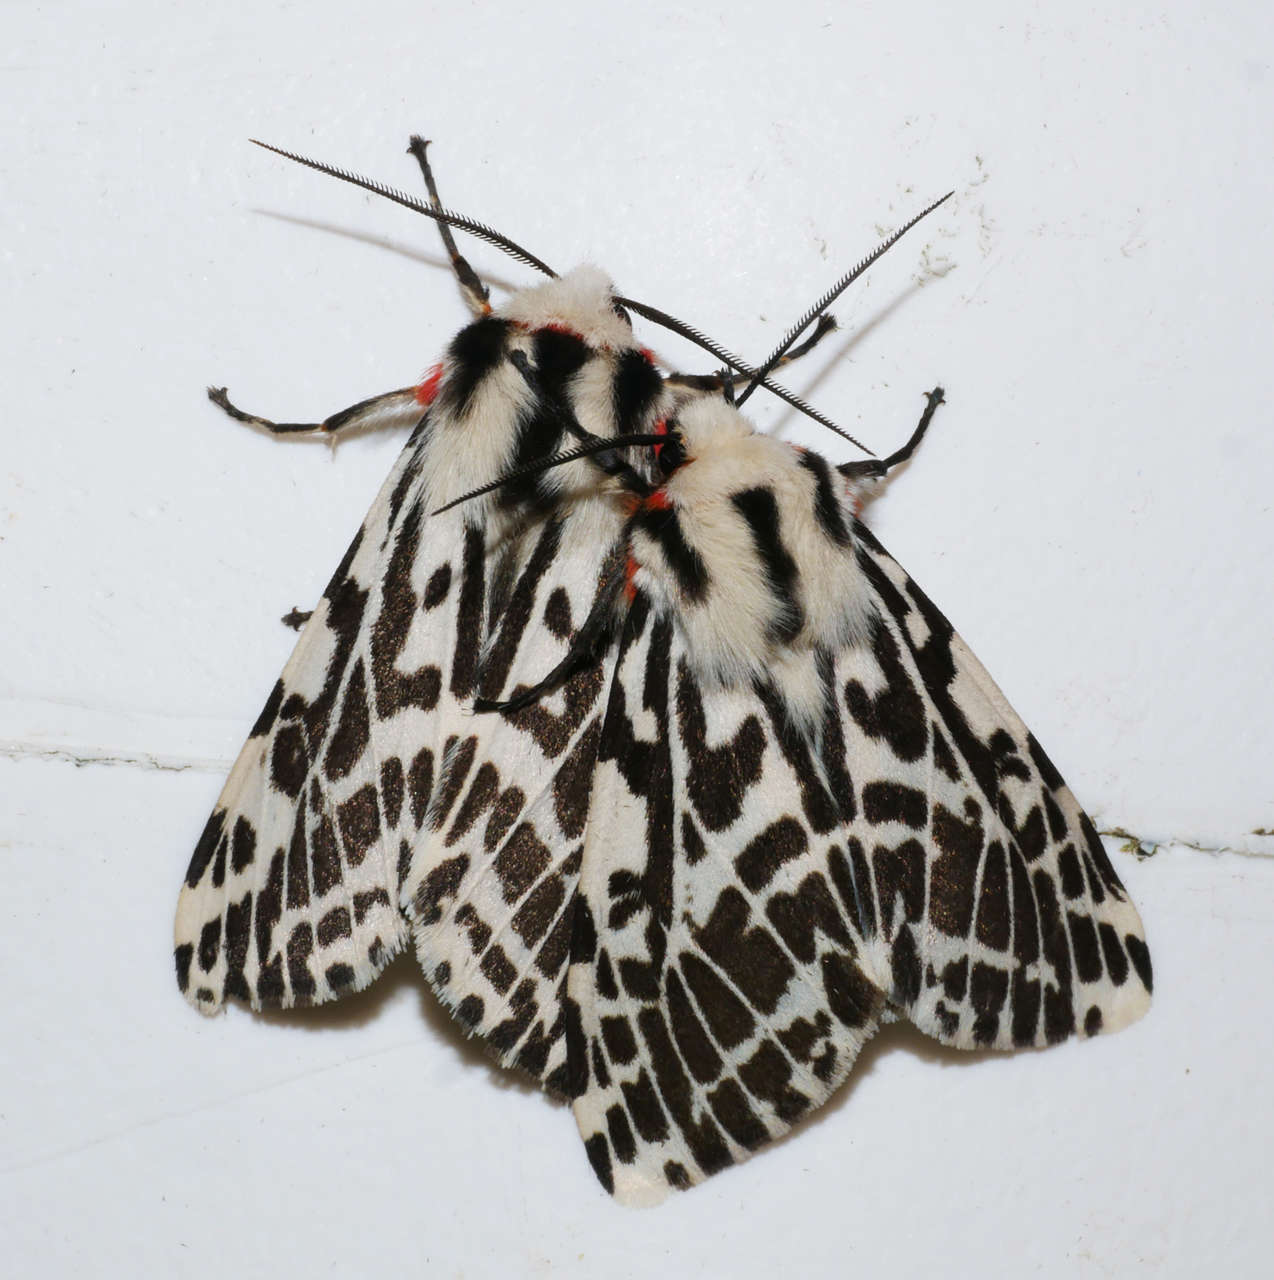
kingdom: Animalia
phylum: Arthropoda
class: Insecta
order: Lepidoptera
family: Erebidae
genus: Ardices
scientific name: Ardices glatignyi
